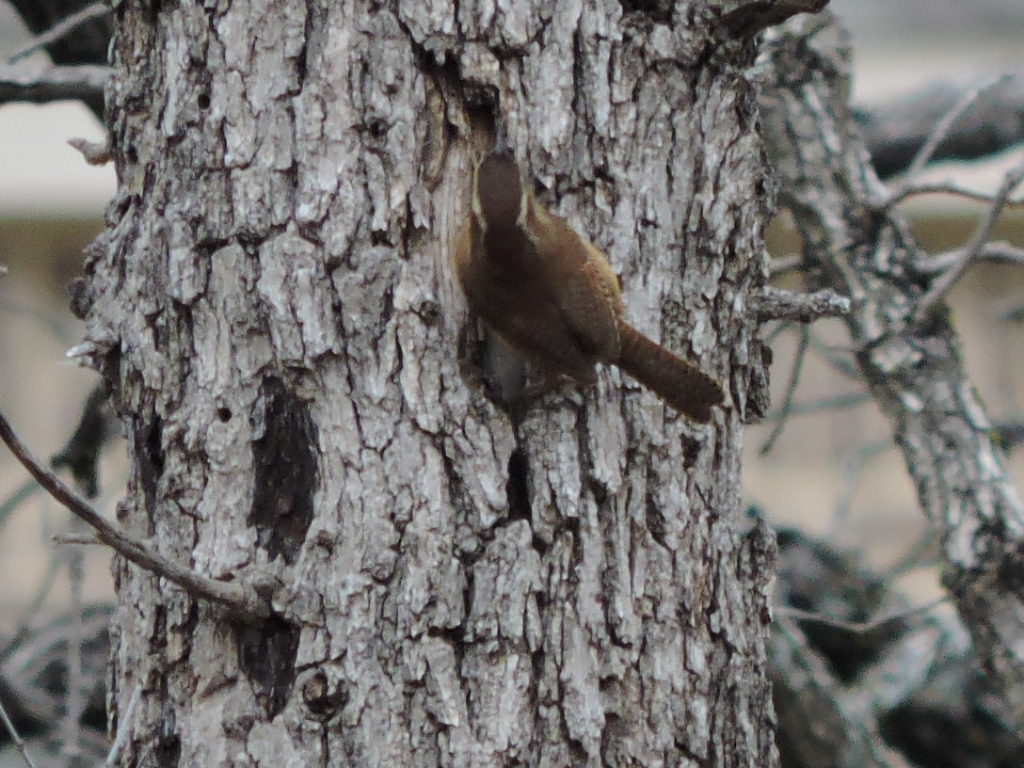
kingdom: Animalia
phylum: Chordata
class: Aves
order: Passeriformes
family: Troglodytidae
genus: Thryothorus
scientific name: Thryothorus ludovicianus
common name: Carolina wren
